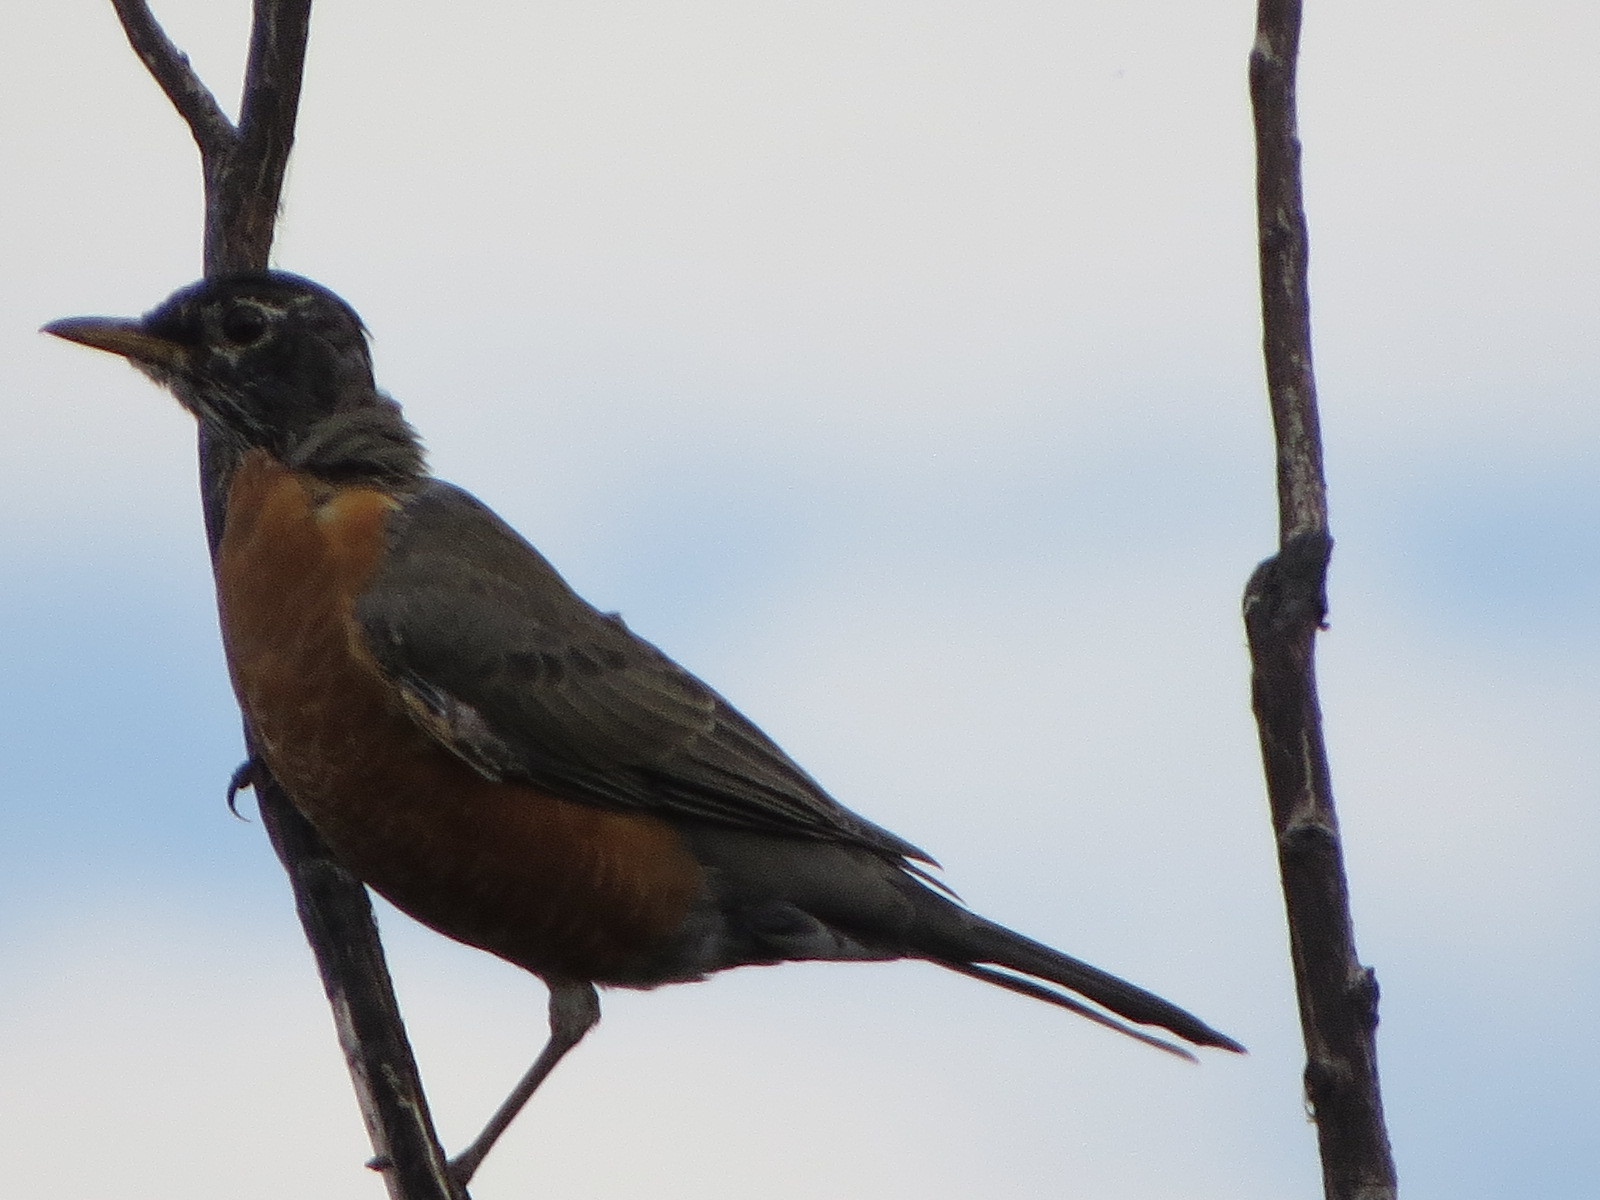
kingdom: Animalia
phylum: Chordata
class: Aves
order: Passeriformes
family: Turdidae
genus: Turdus
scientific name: Turdus migratorius
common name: American robin
